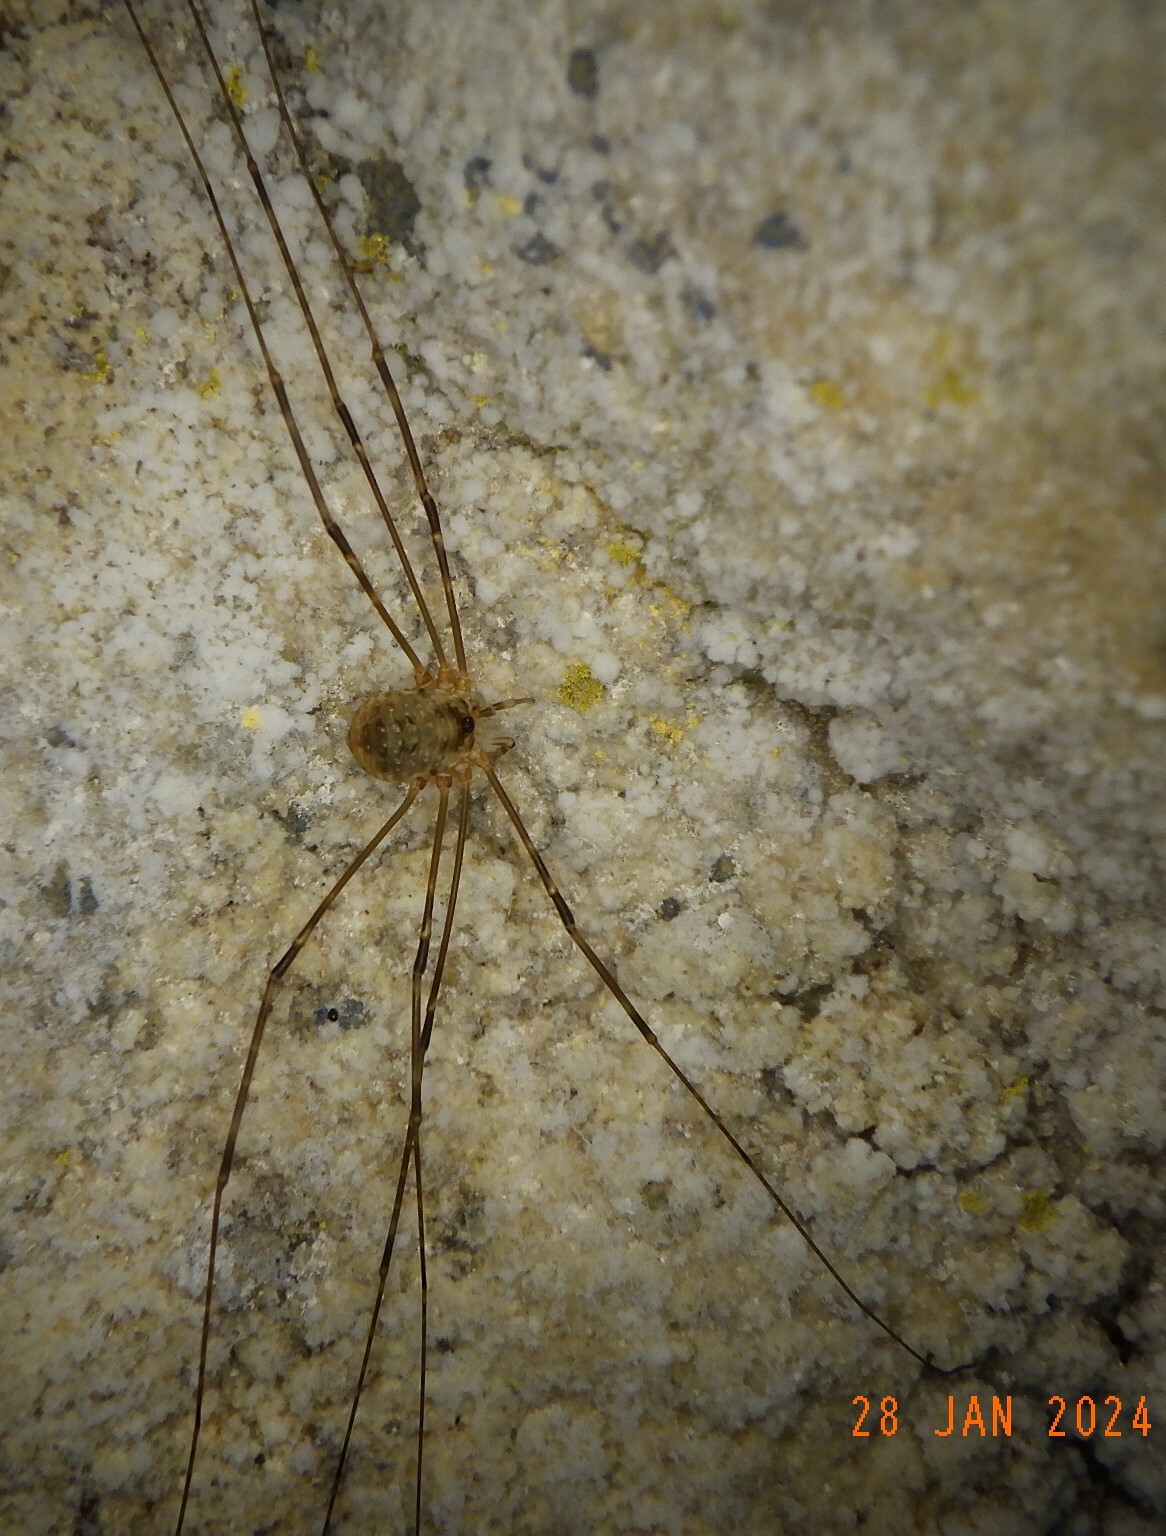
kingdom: Animalia
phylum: Arthropoda
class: Arachnida
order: Opiliones
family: Phalangiidae
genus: Amilenus
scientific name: Amilenus aurantiacus
